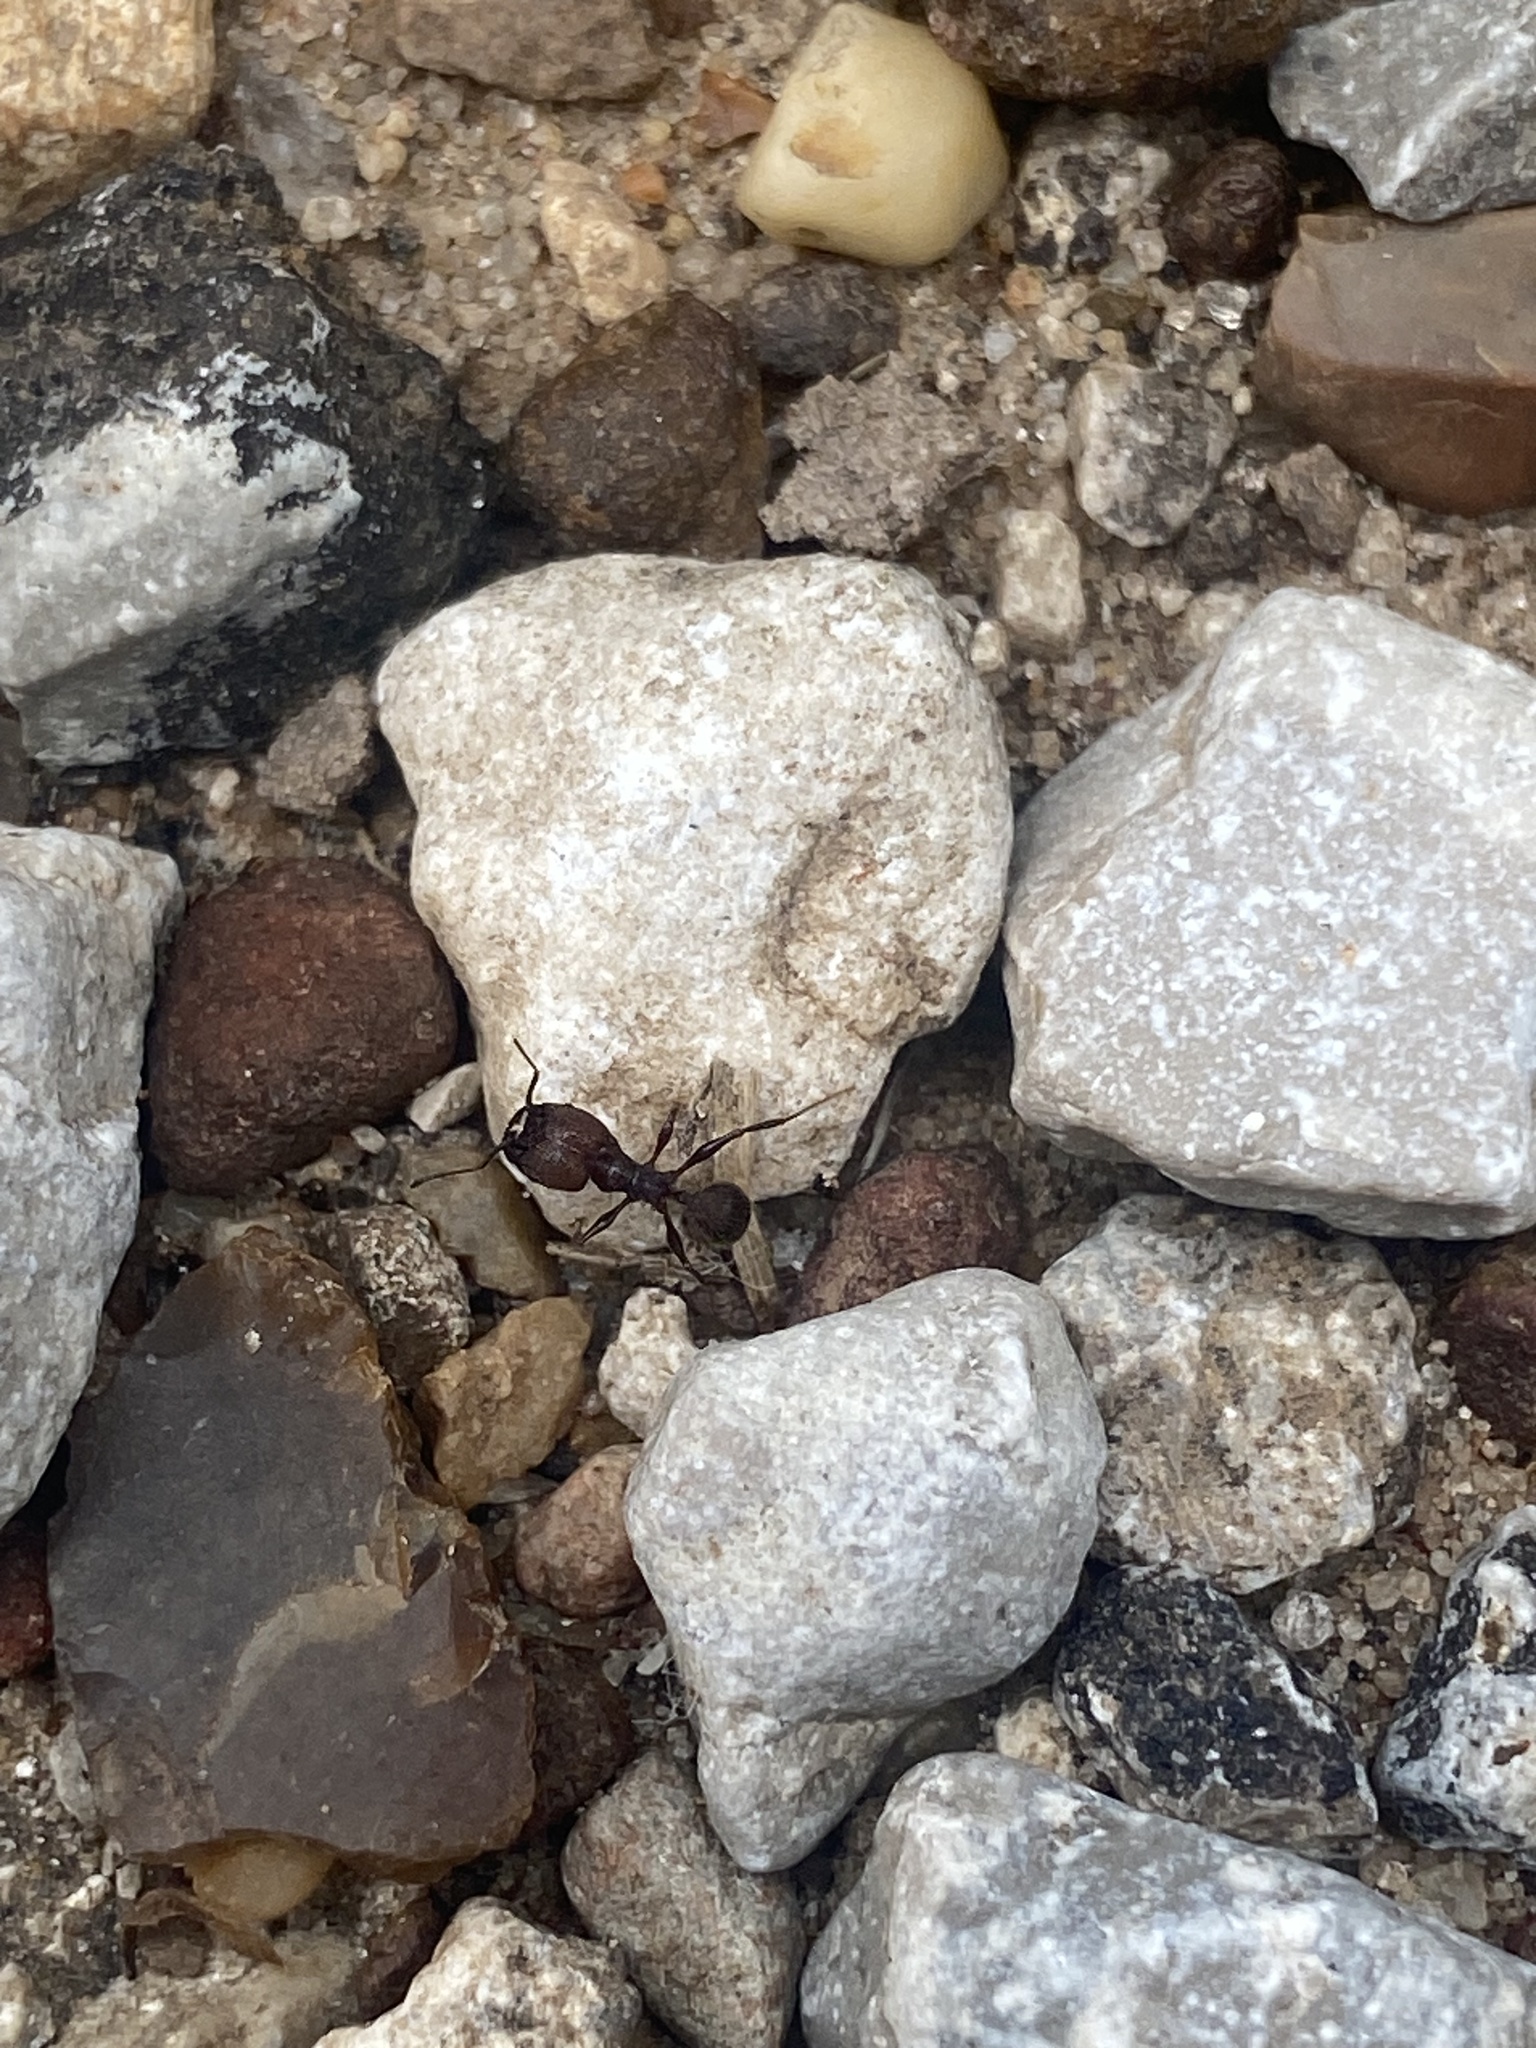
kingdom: Animalia
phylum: Arthropoda
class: Insecta
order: Hymenoptera
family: Formicidae
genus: Pheidole
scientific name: Pheidole obscurithorax
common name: Obscure big-headed ant
